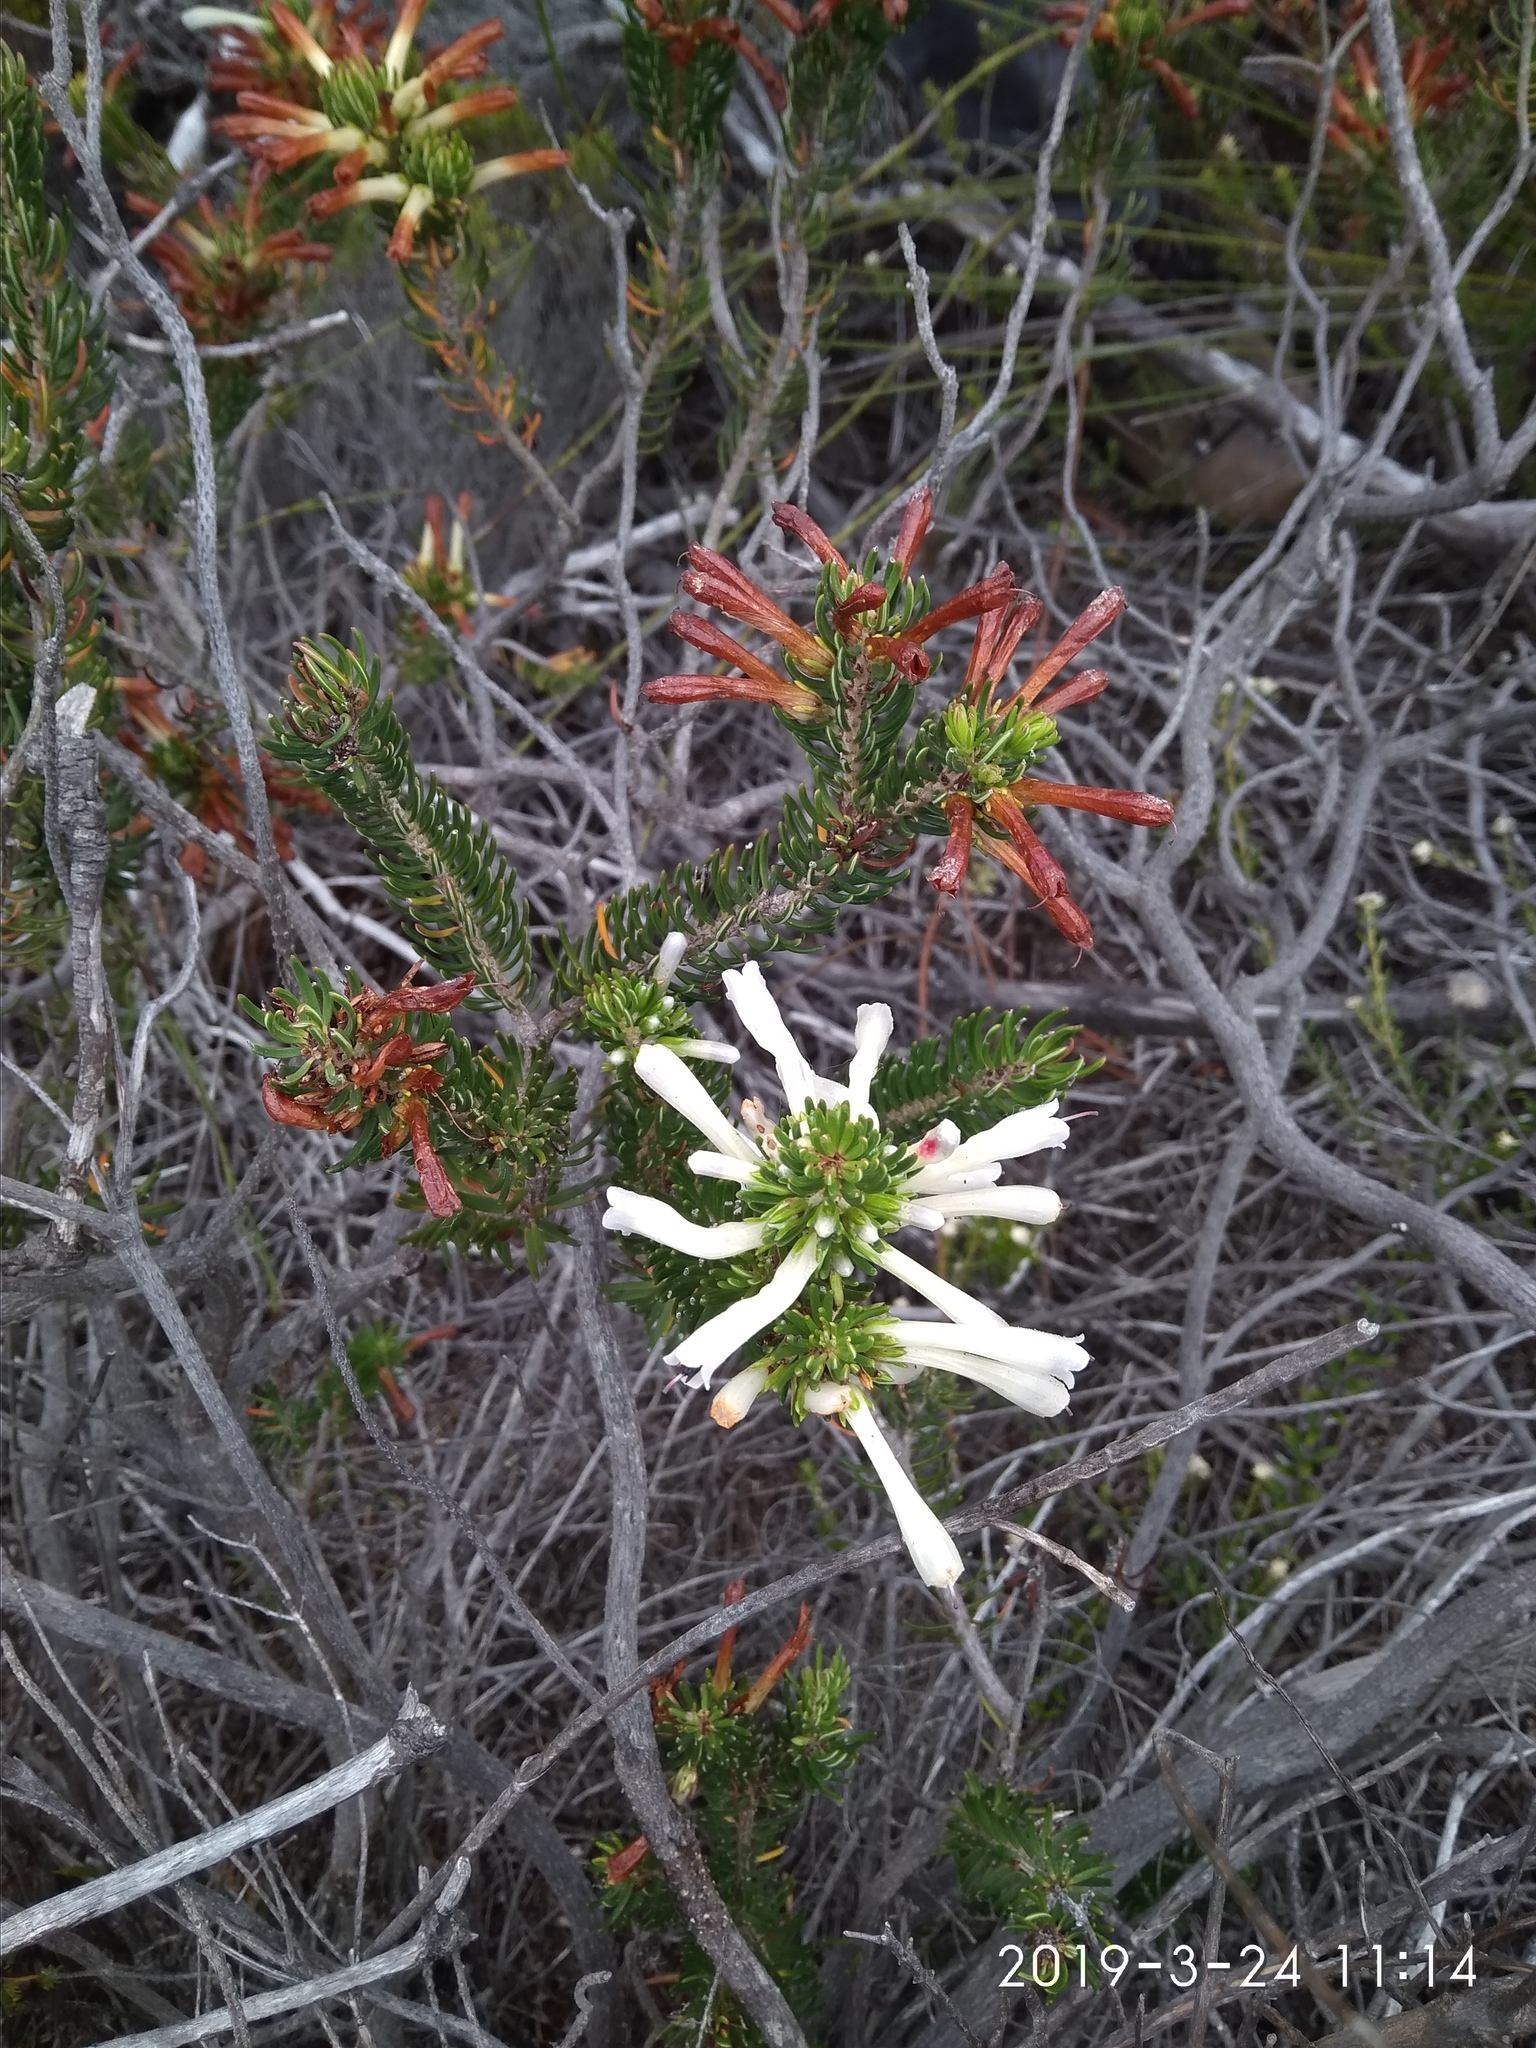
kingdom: Plantae
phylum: Tracheophyta
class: Magnoliopsida
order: Ericales
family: Ericaceae
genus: Erica
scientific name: Erica thomae
